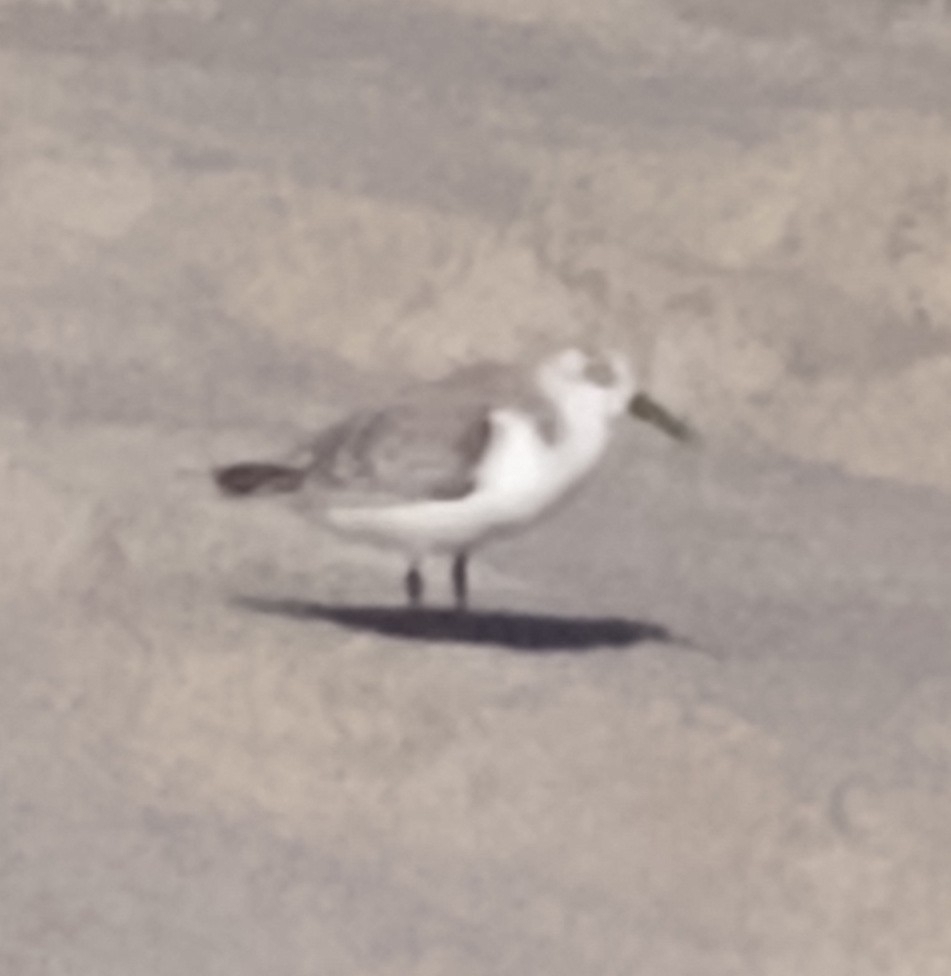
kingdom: Animalia
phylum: Chordata
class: Aves
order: Charadriiformes
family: Scolopacidae
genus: Calidris
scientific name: Calidris alba
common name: Sanderling
